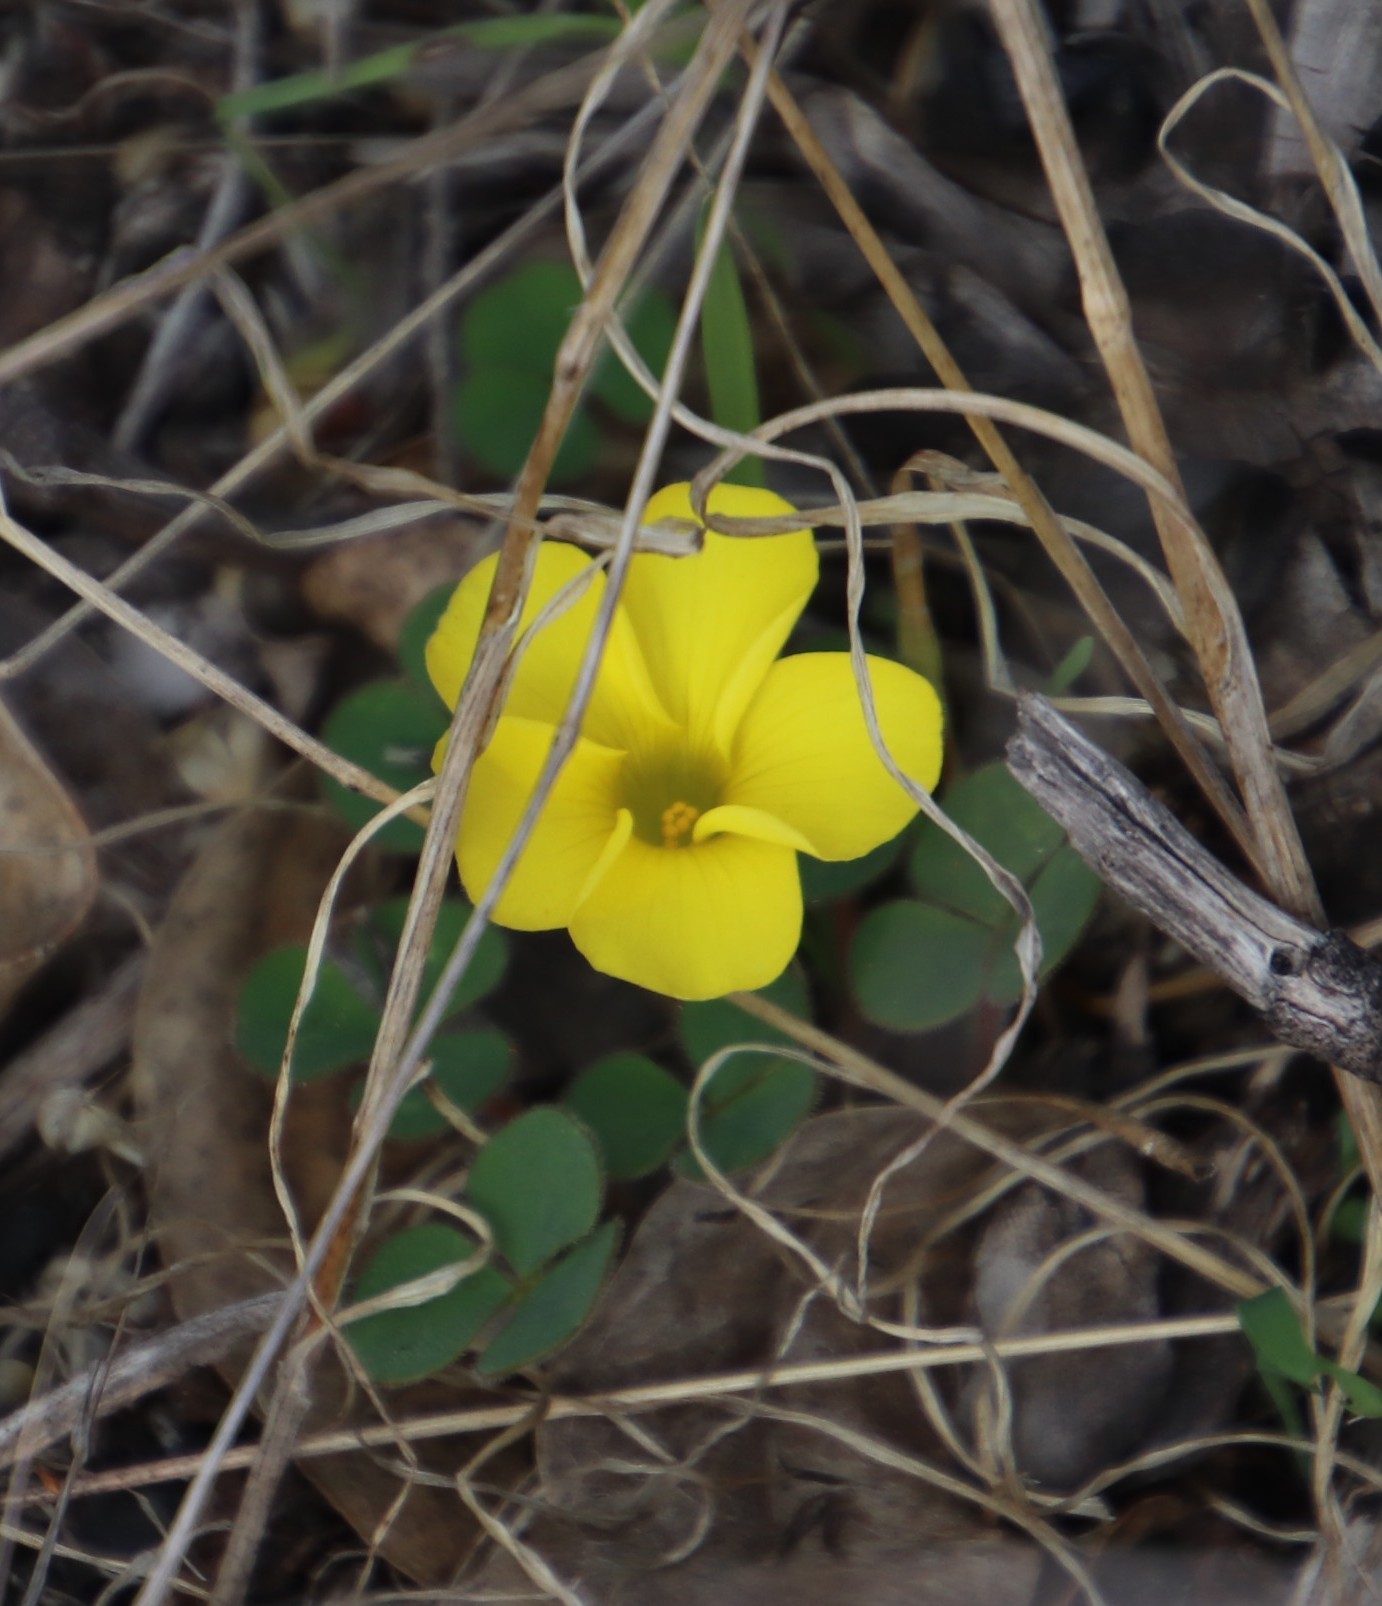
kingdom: Plantae
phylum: Tracheophyta
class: Magnoliopsida
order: Oxalidales
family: Oxalidaceae
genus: Oxalis
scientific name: Oxalis luteola
